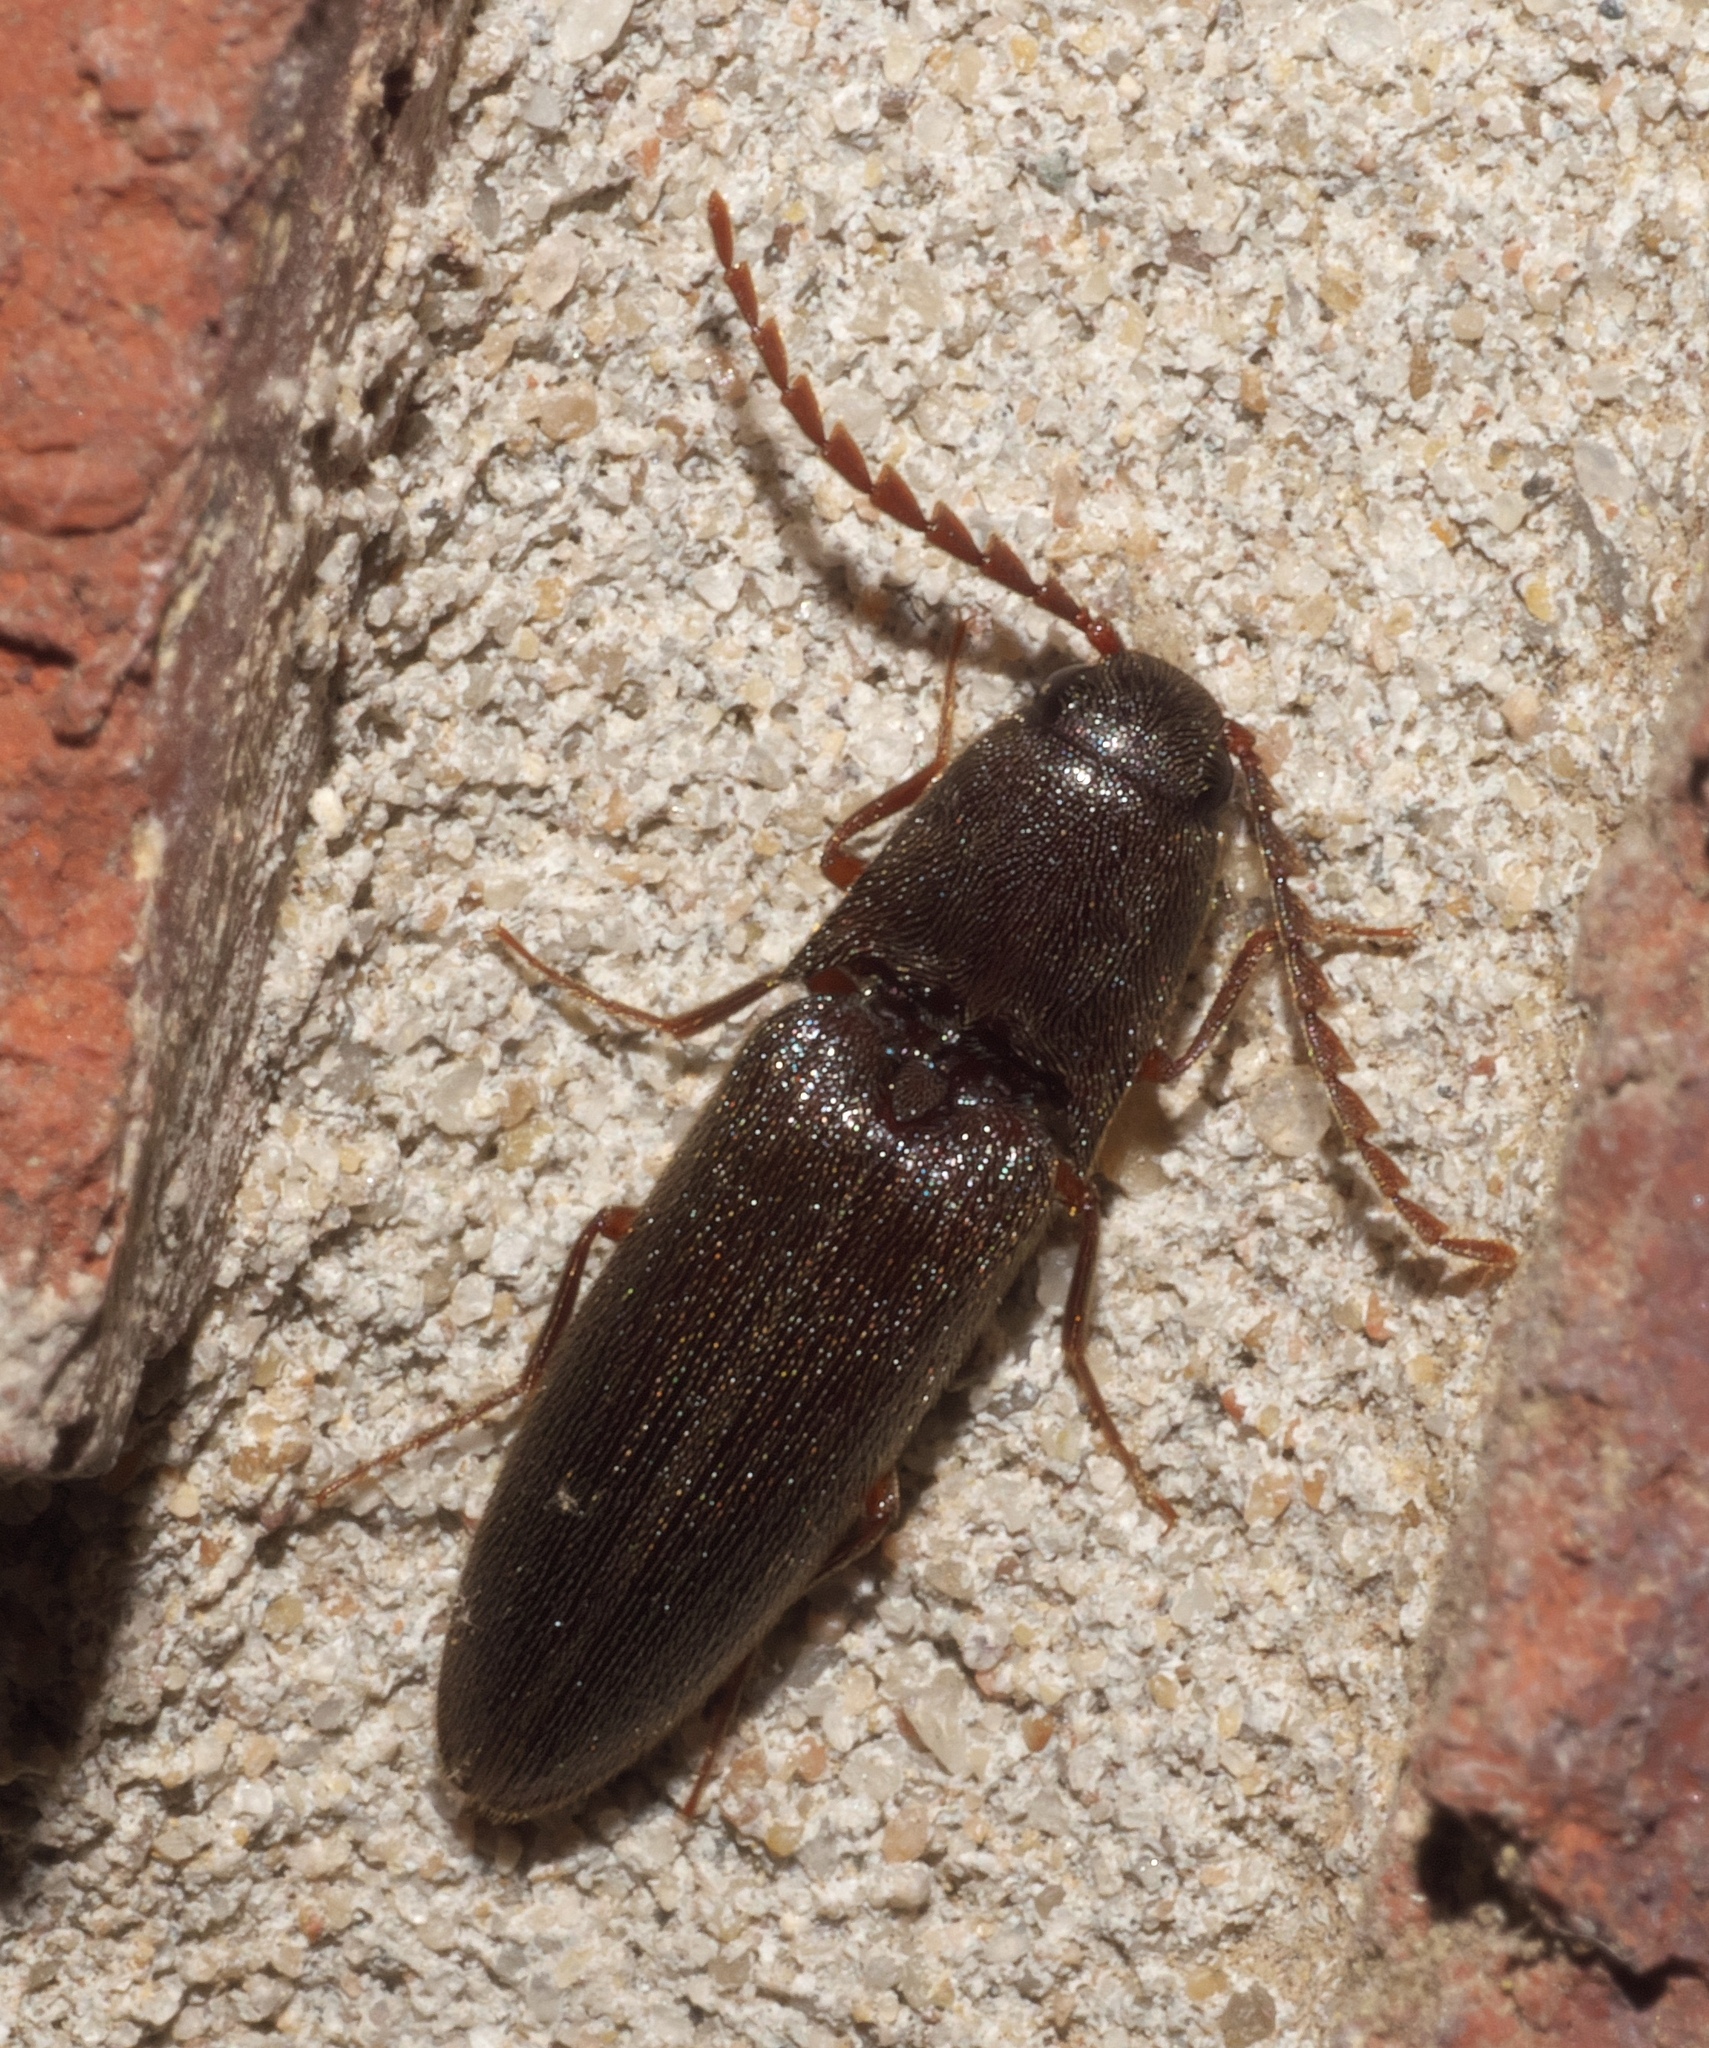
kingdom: Animalia
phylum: Arthropoda
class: Insecta
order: Coleoptera
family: Elateridae
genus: Megapenthes
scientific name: Megapenthes insignis
